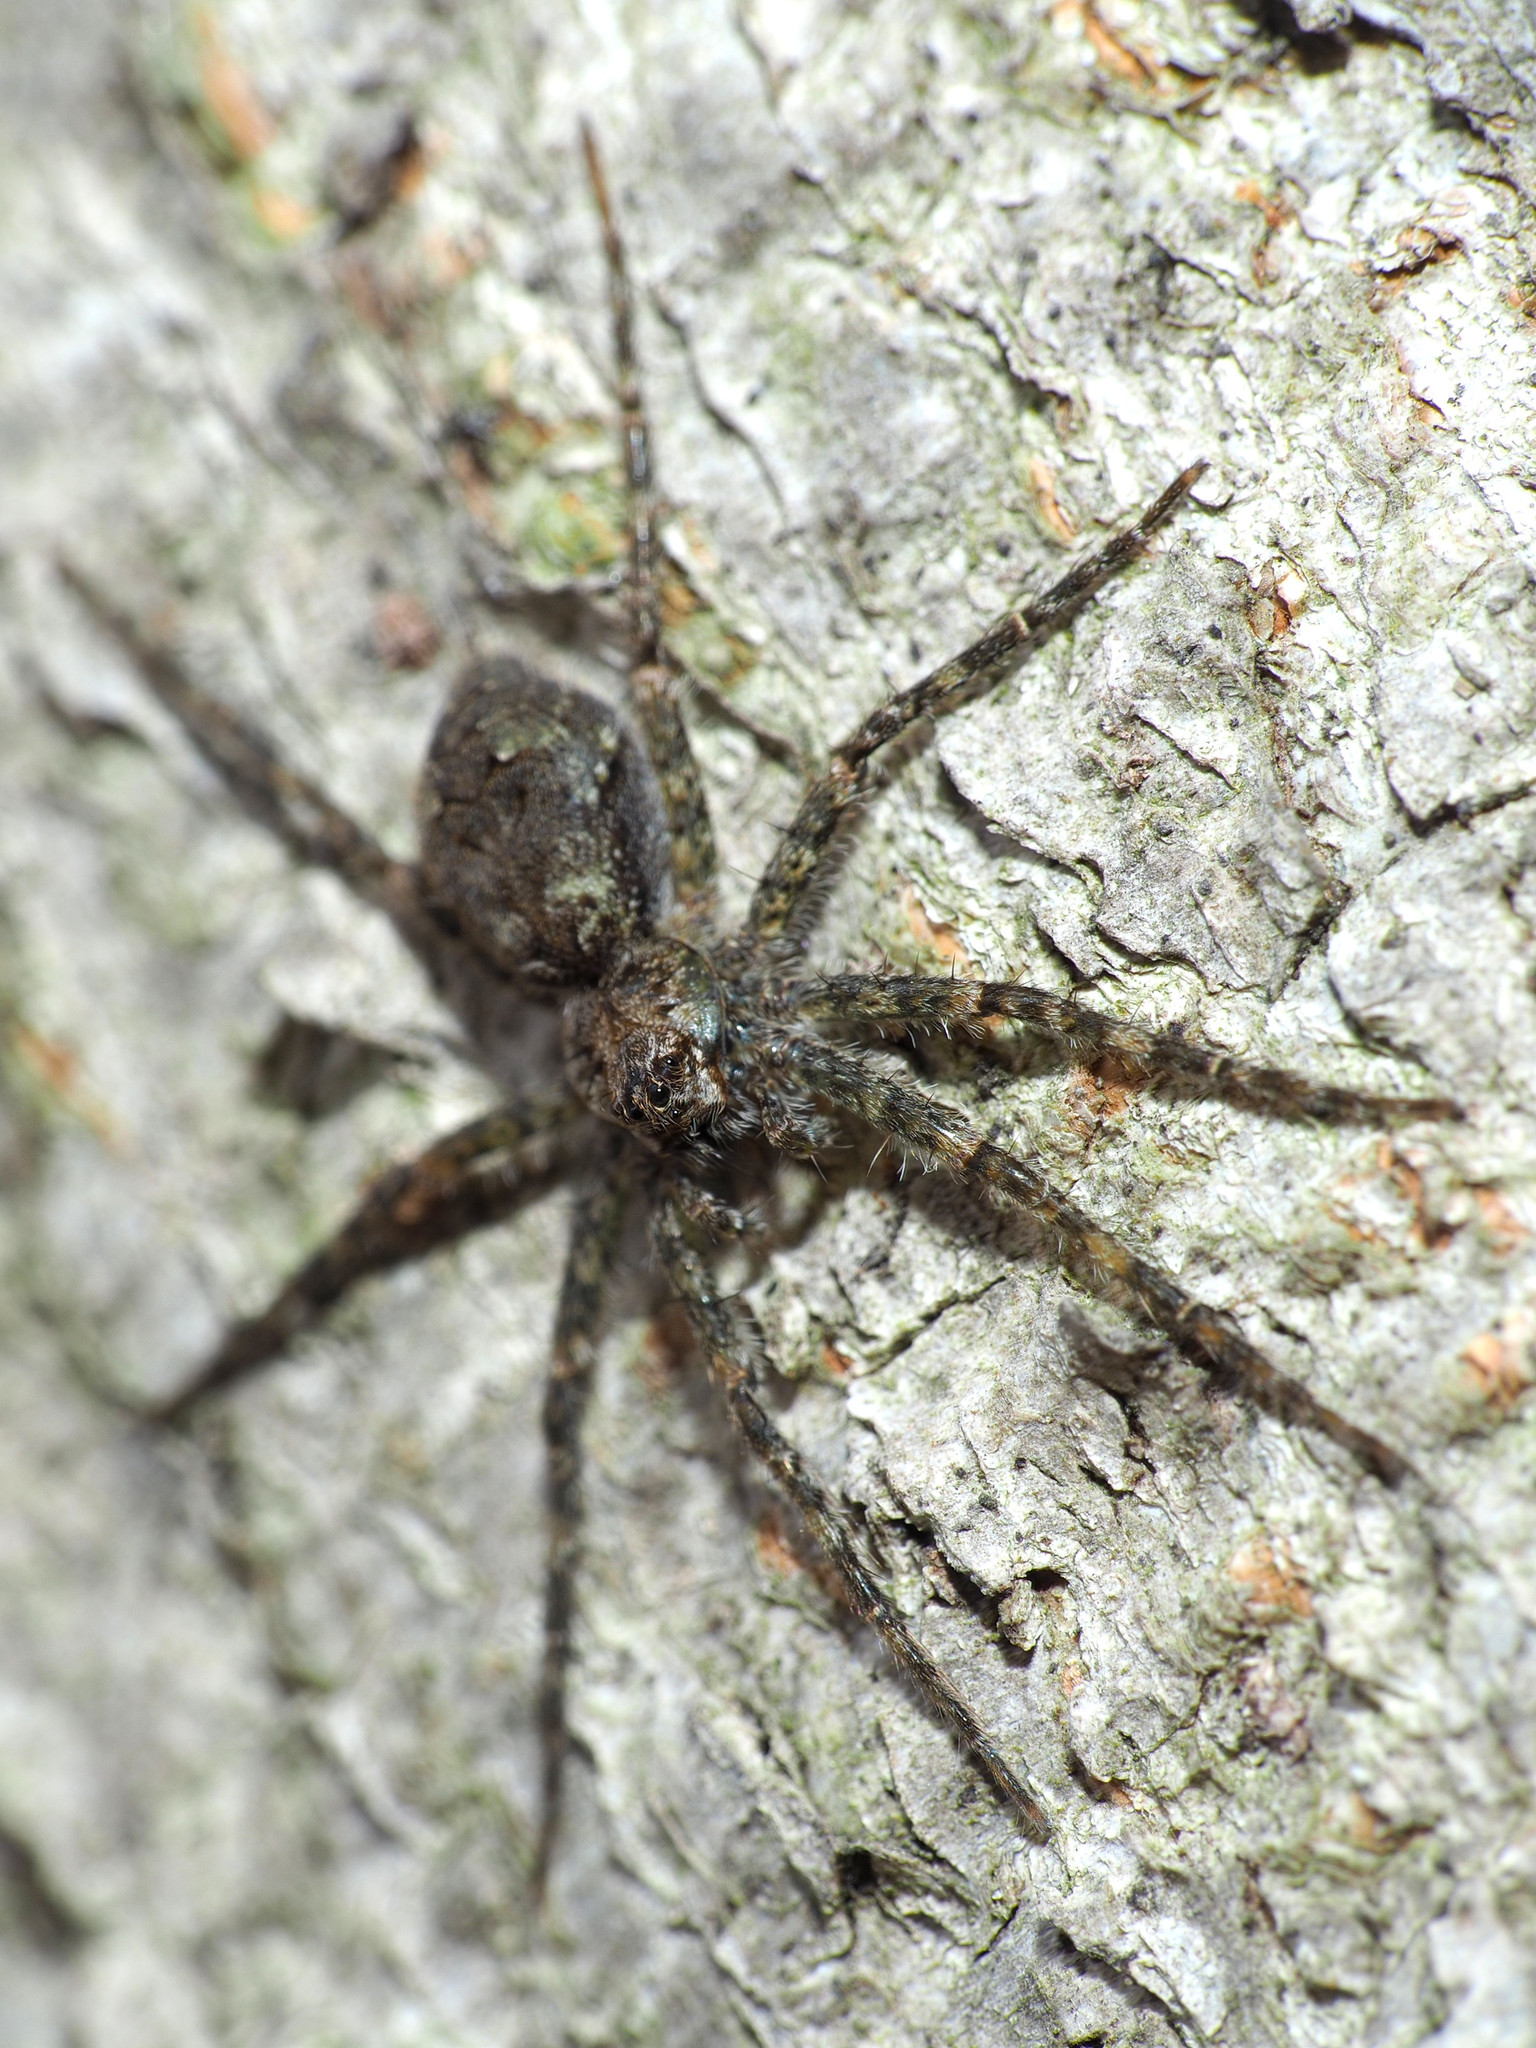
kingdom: Animalia
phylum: Arthropoda
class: Arachnida
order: Araneae
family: Pisauridae
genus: Dolomedes
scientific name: Dolomedes albineus
